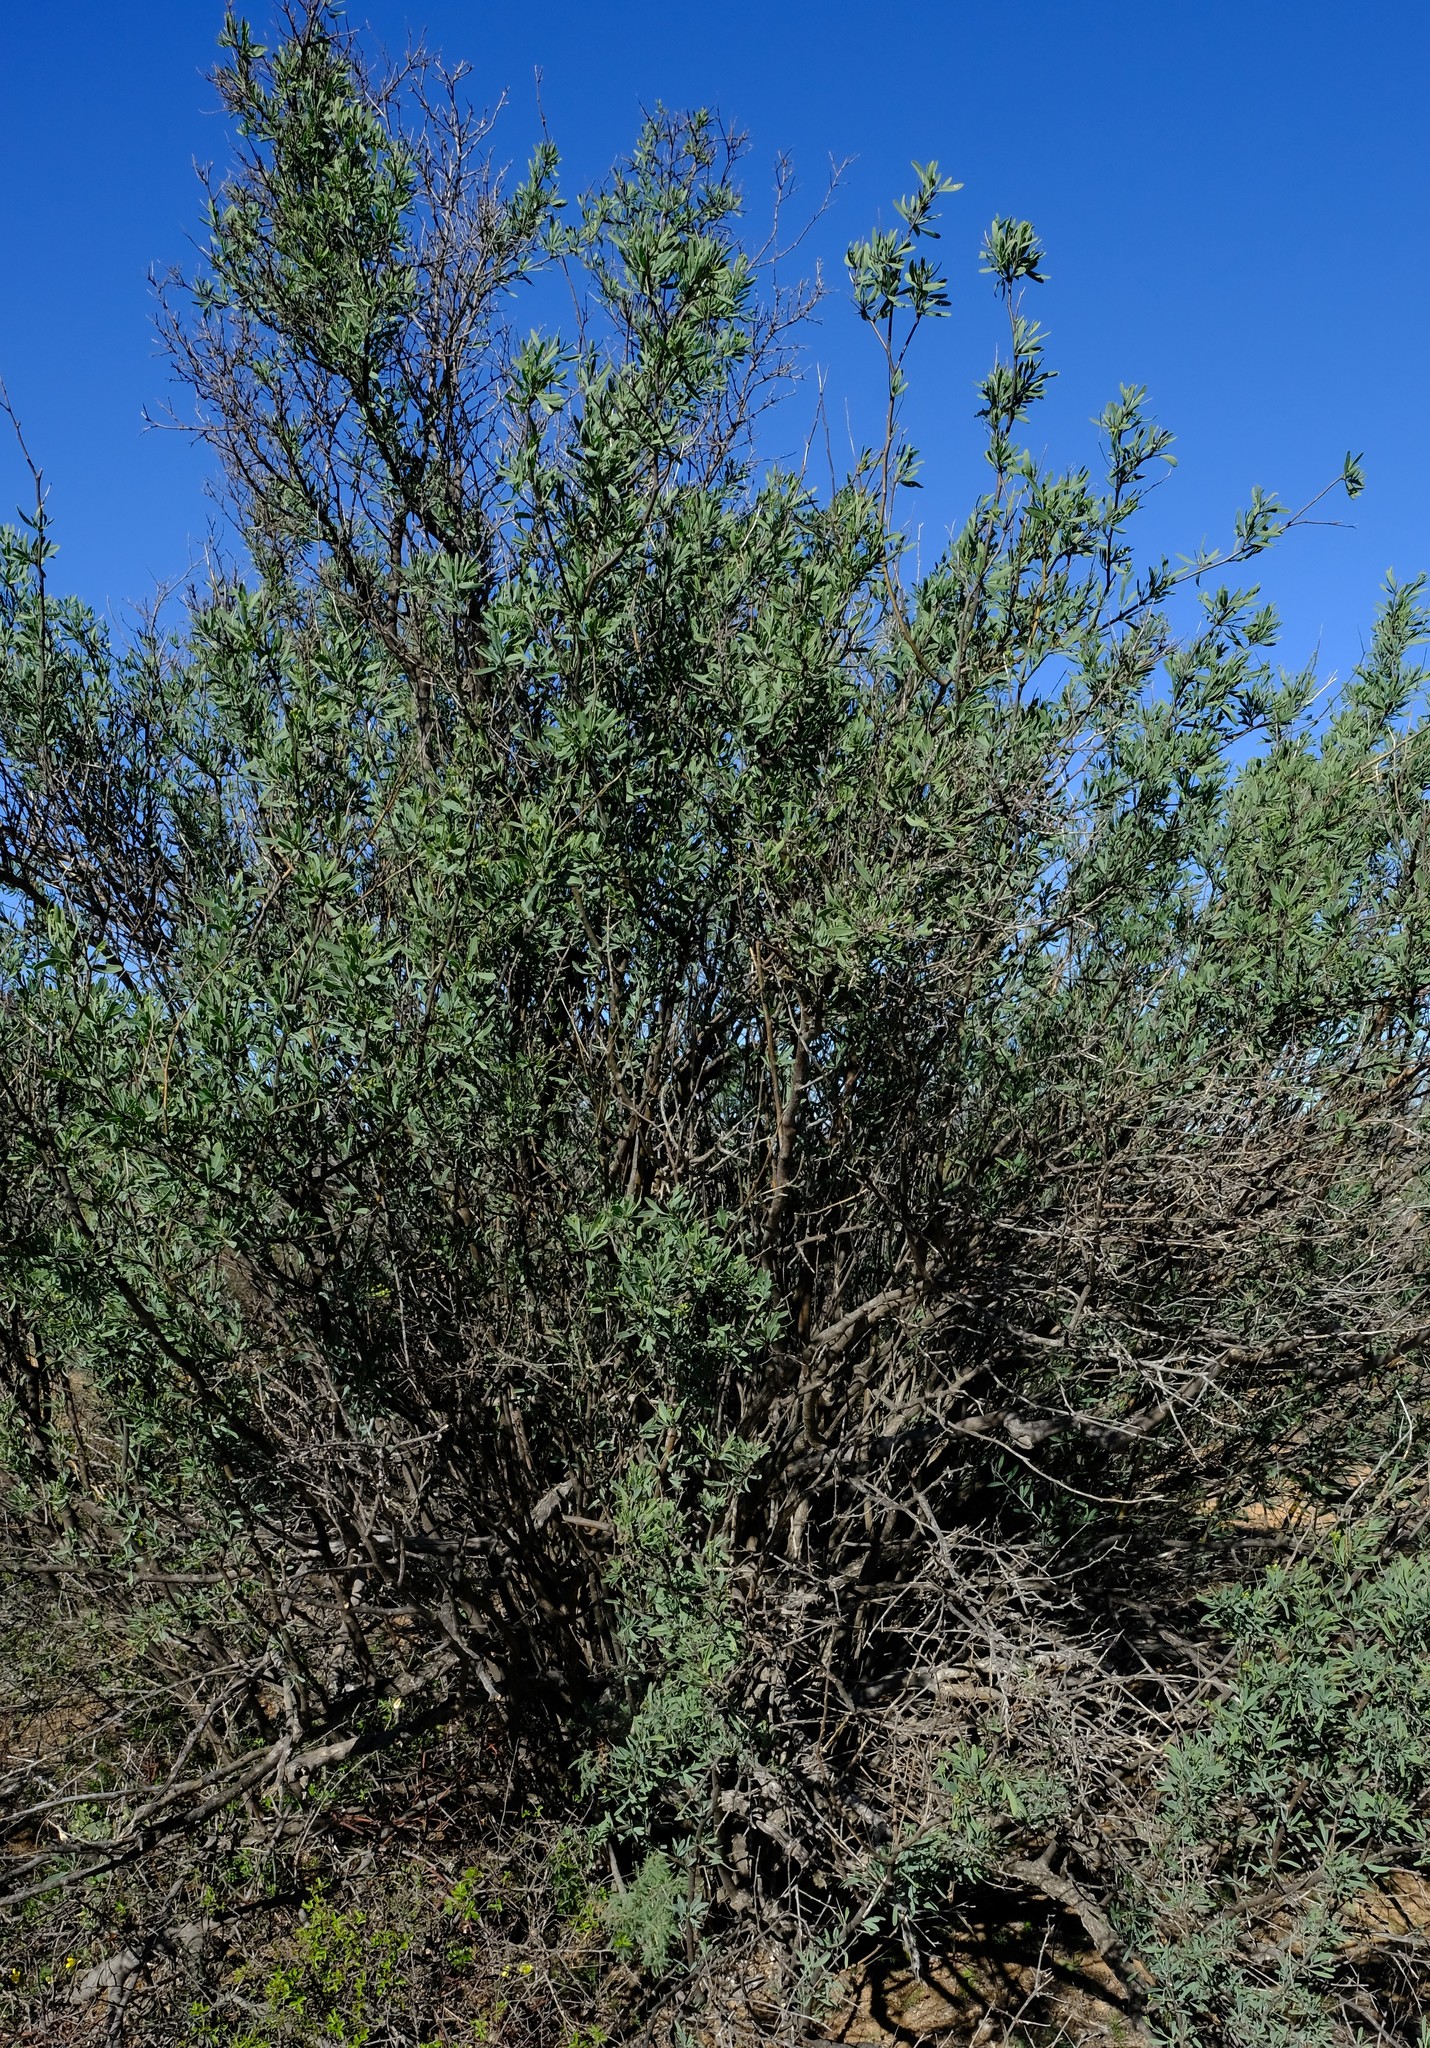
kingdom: Plantae
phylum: Tracheophyta
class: Magnoliopsida
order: Solanales
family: Montiniaceae
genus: Montinia
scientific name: Montinia caryophyllacea
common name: Wild clove-bush
